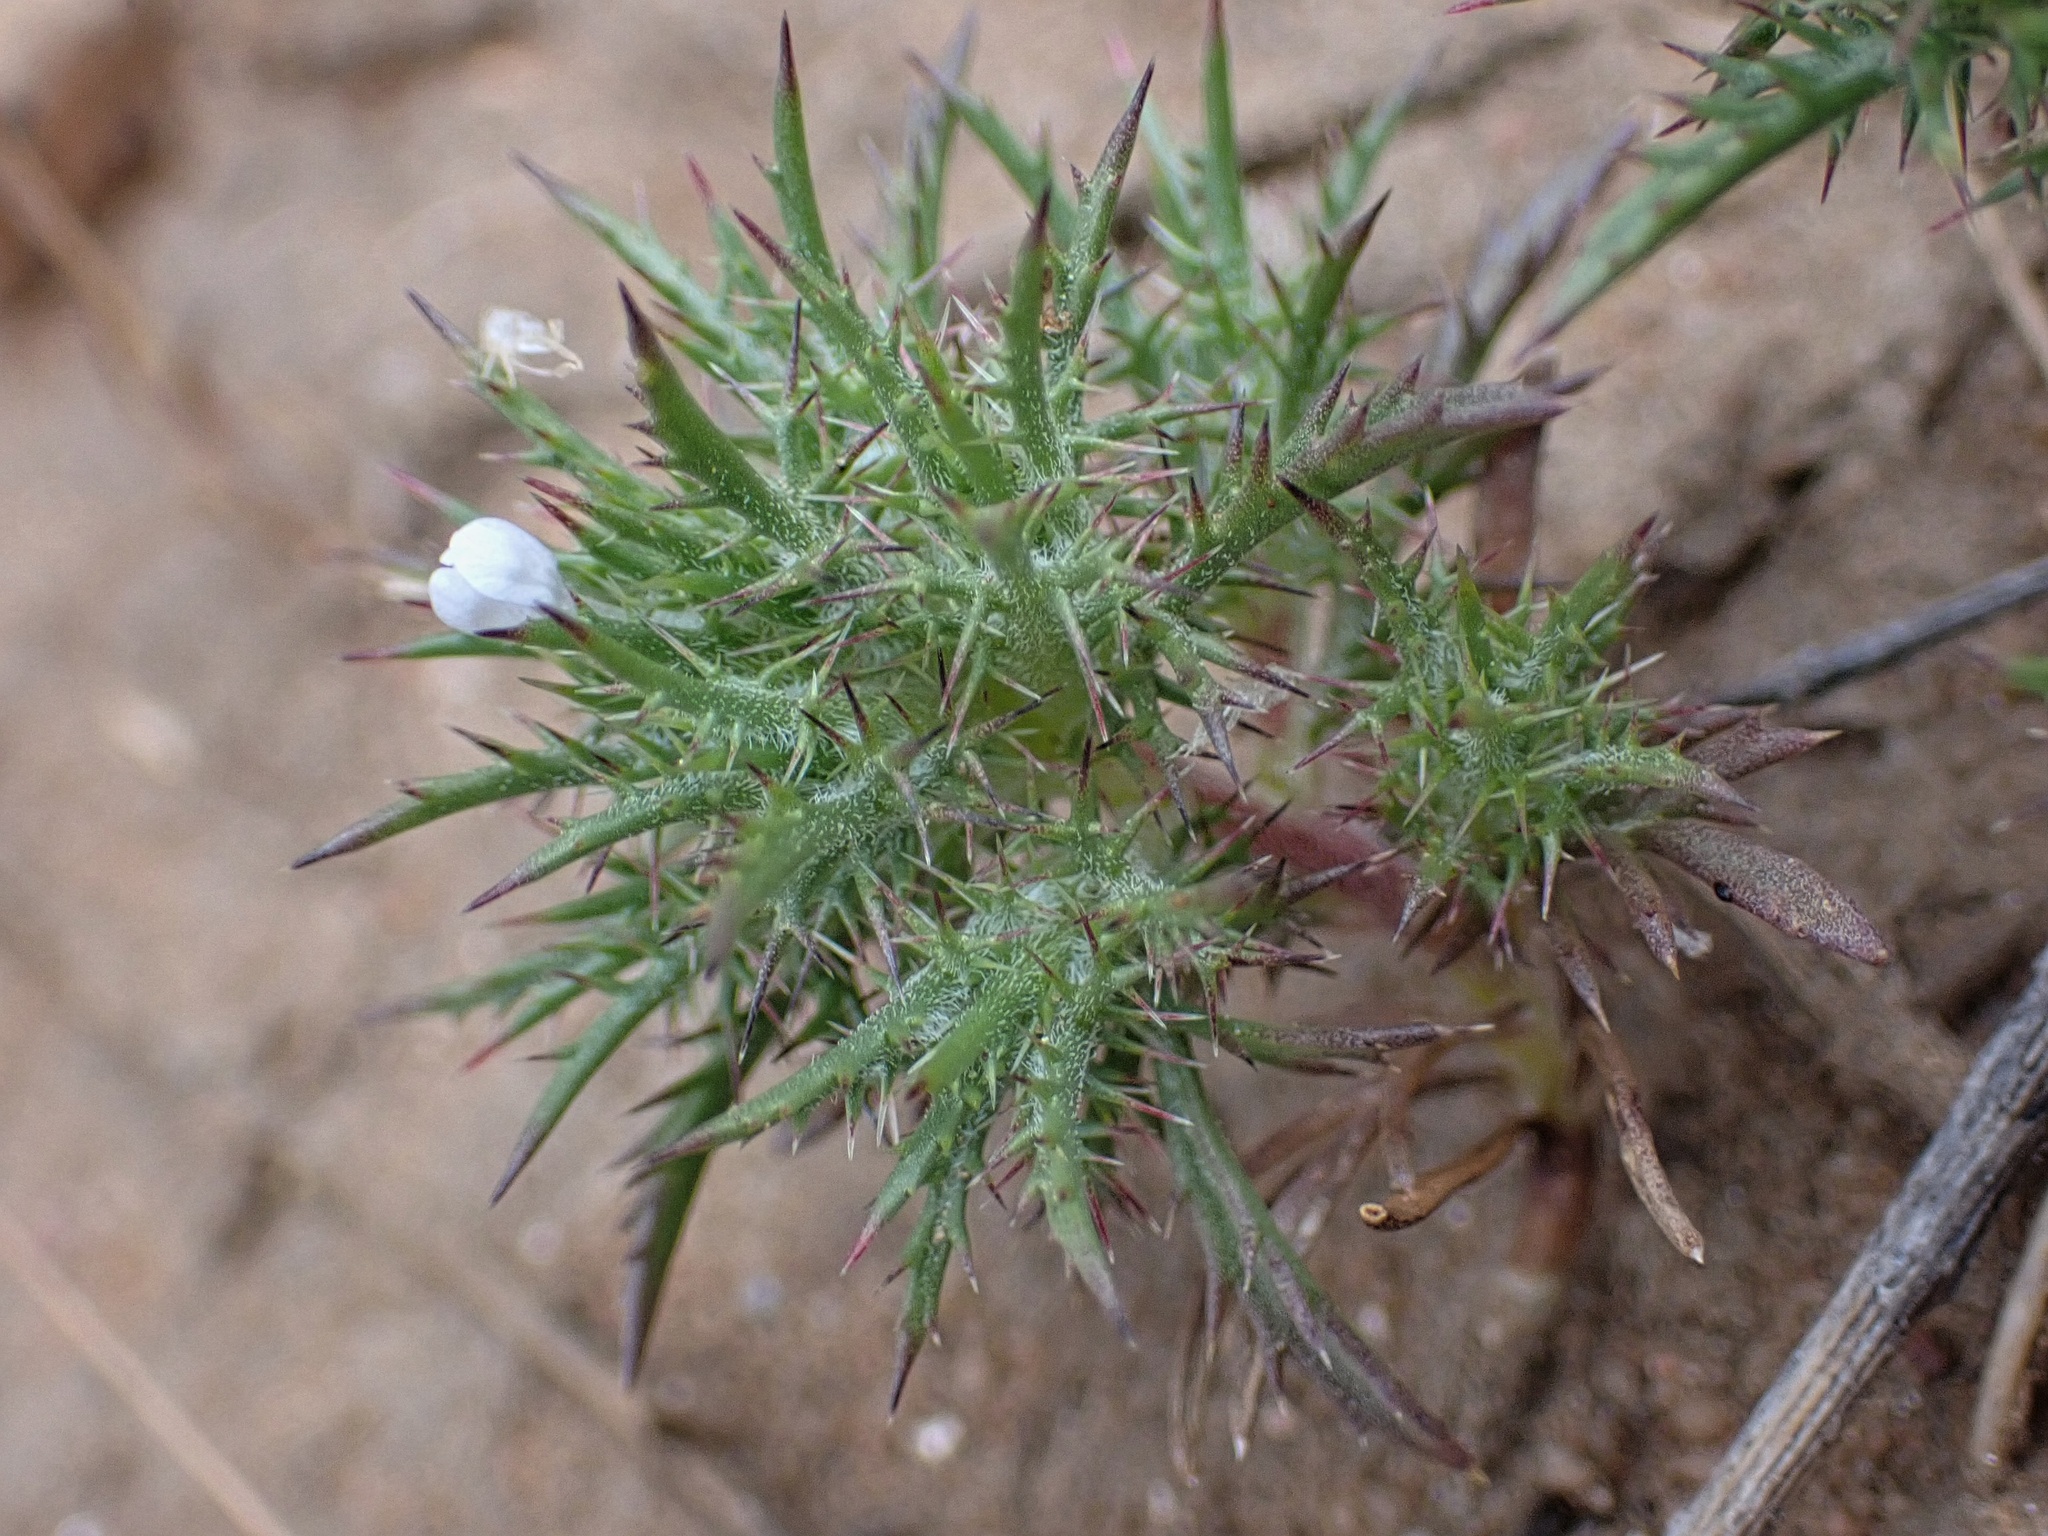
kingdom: Plantae
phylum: Tracheophyta
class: Magnoliopsida
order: Ericales
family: Polemoniaceae
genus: Navarretia
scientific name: Navarretia tagetina
